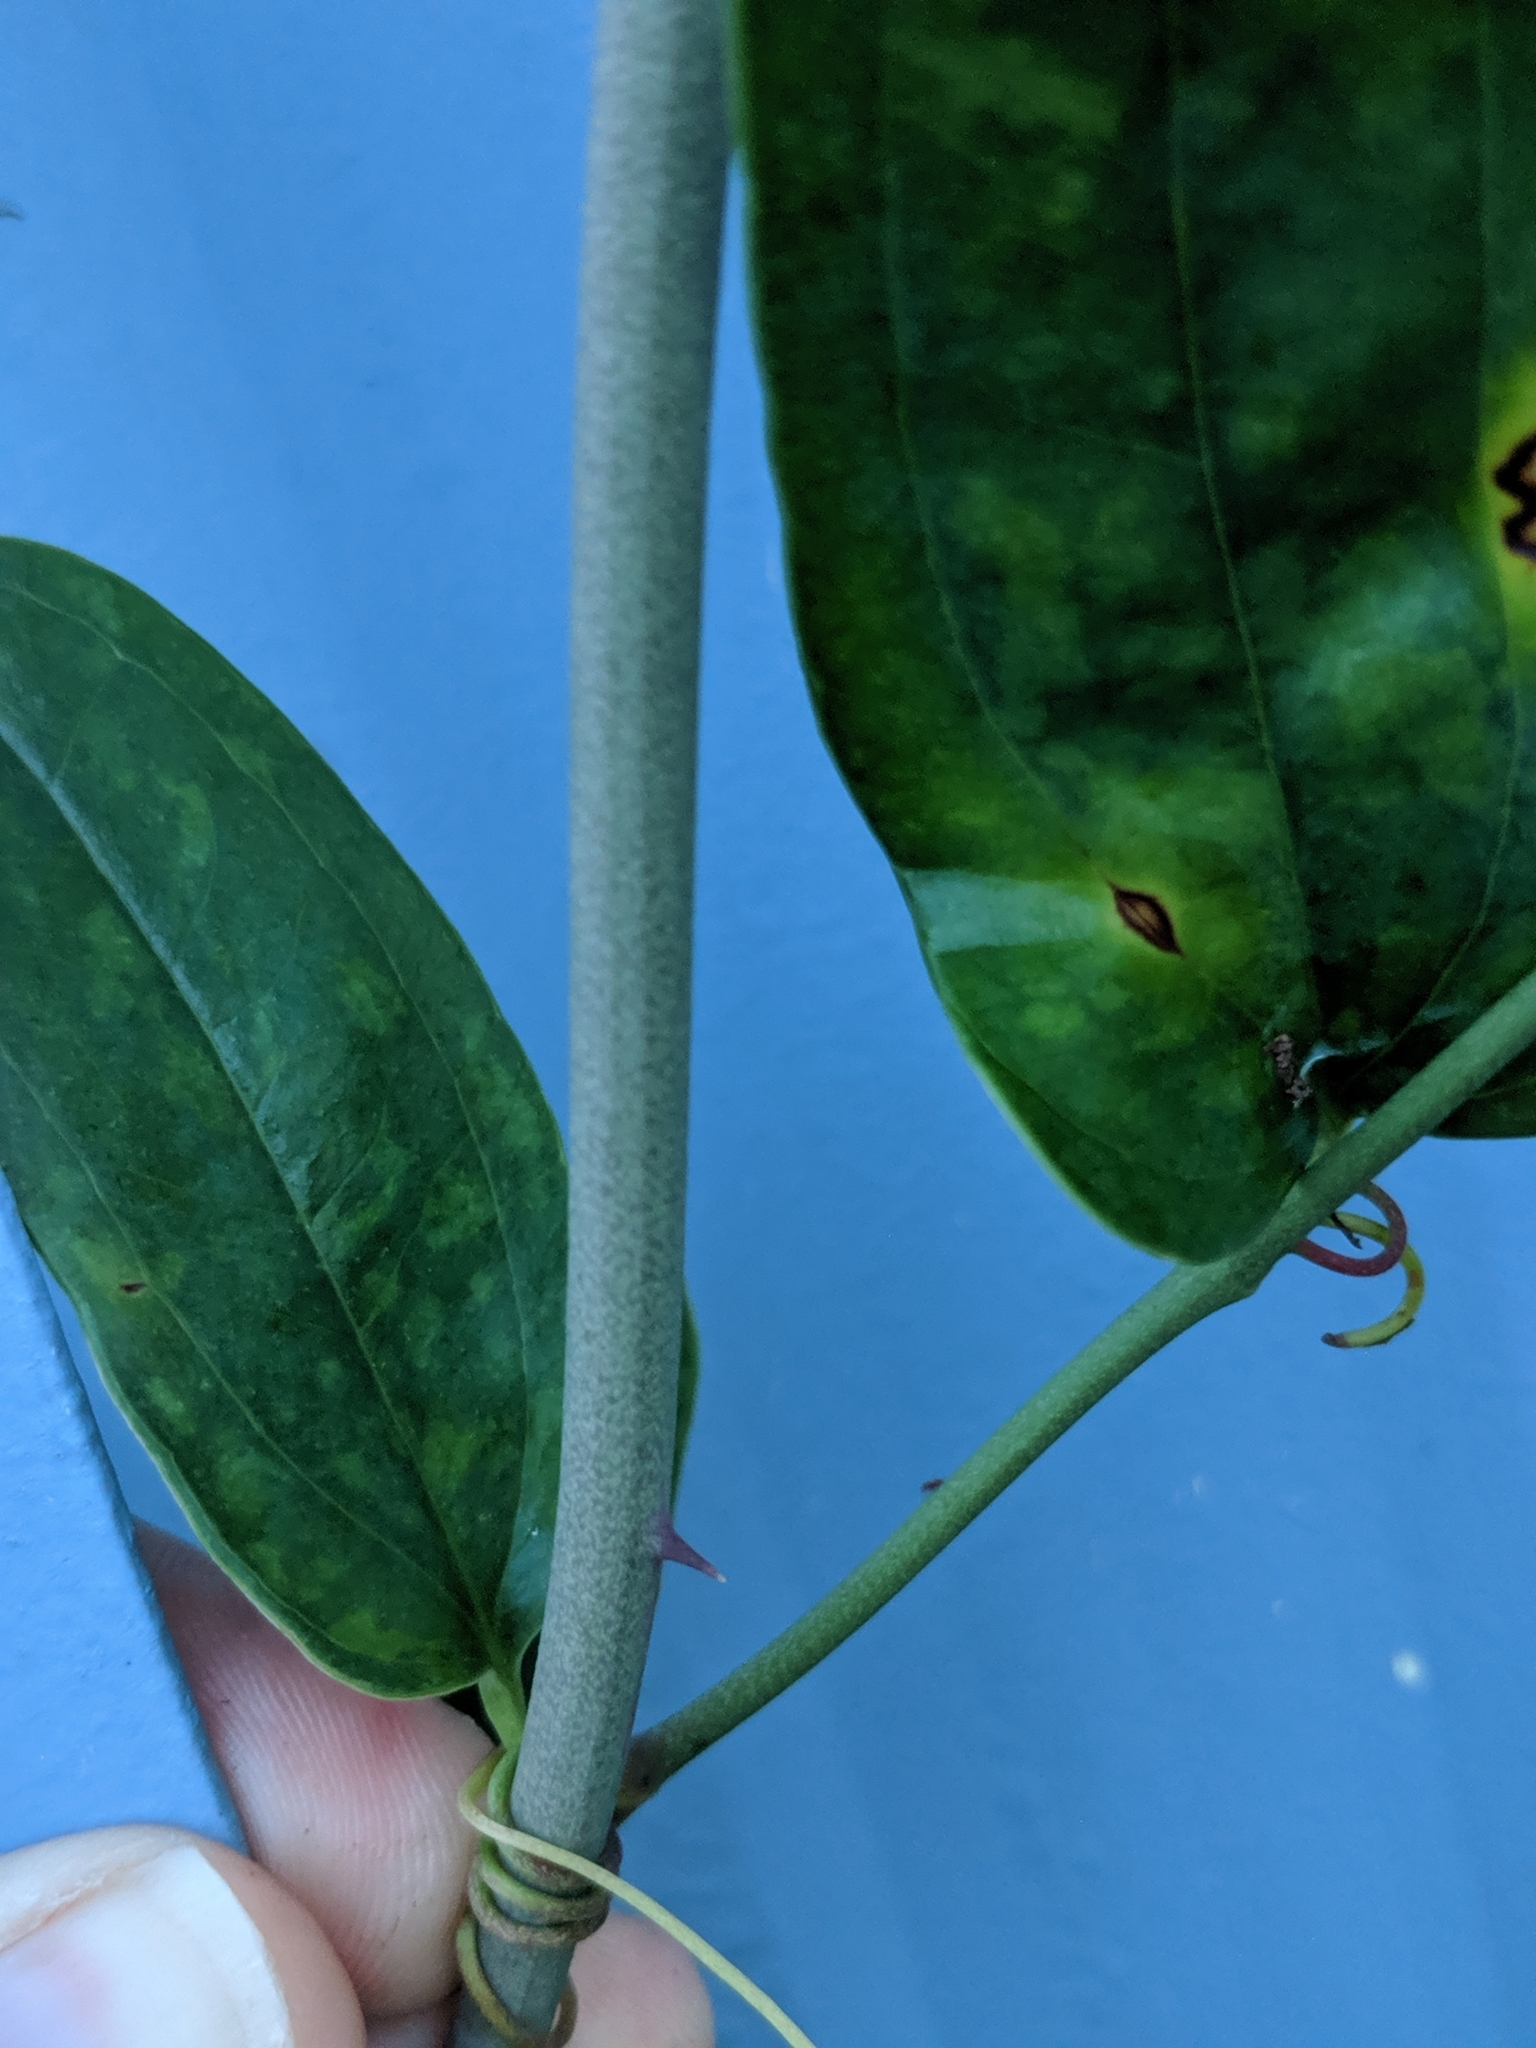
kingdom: Plantae
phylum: Tracheophyta
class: Liliopsida
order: Liliales
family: Smilacaceae
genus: Smilax
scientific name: Smilax auriculata
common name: Wild bamboo
